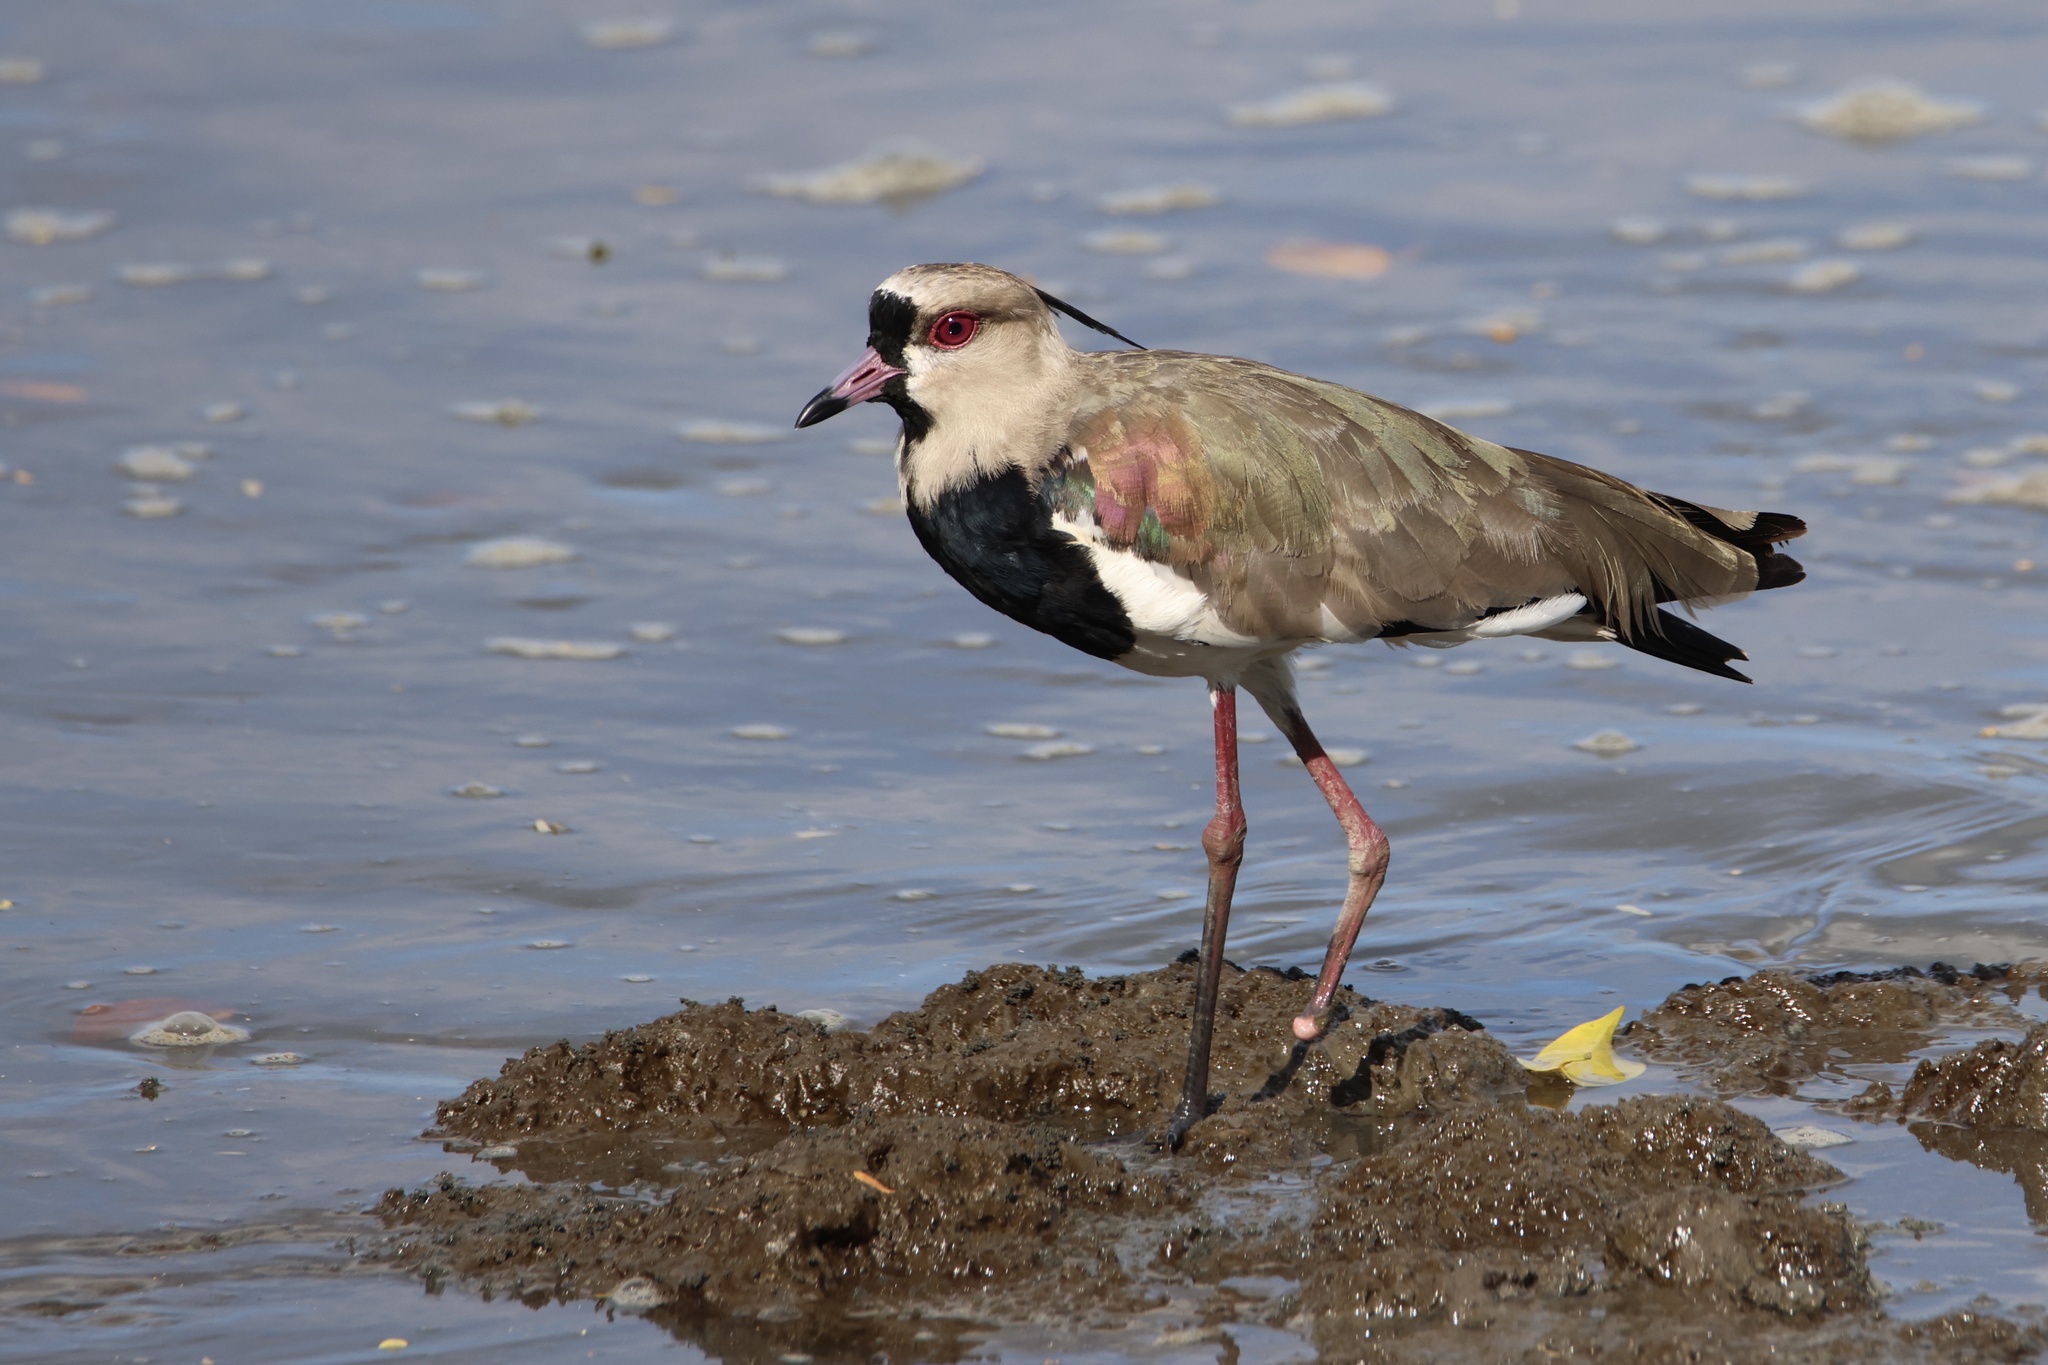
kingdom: Animalia
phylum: Chordata
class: Aves
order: Charadriiformes
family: Charadriidae
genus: Vanellus
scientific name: Vanellus chilensis
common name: Southern lapwing
